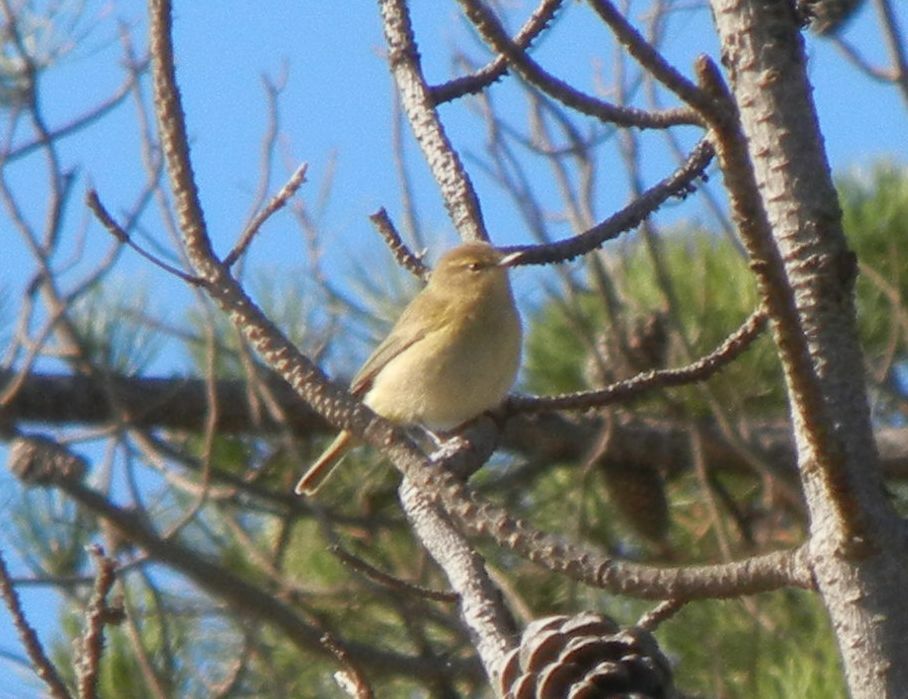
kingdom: Animalia
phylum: Chordata
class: Aves
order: Passeriformes
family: Phylloscopidae
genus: Phylloscopus
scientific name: Phylloscopus collybita
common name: Common chiffchaff
